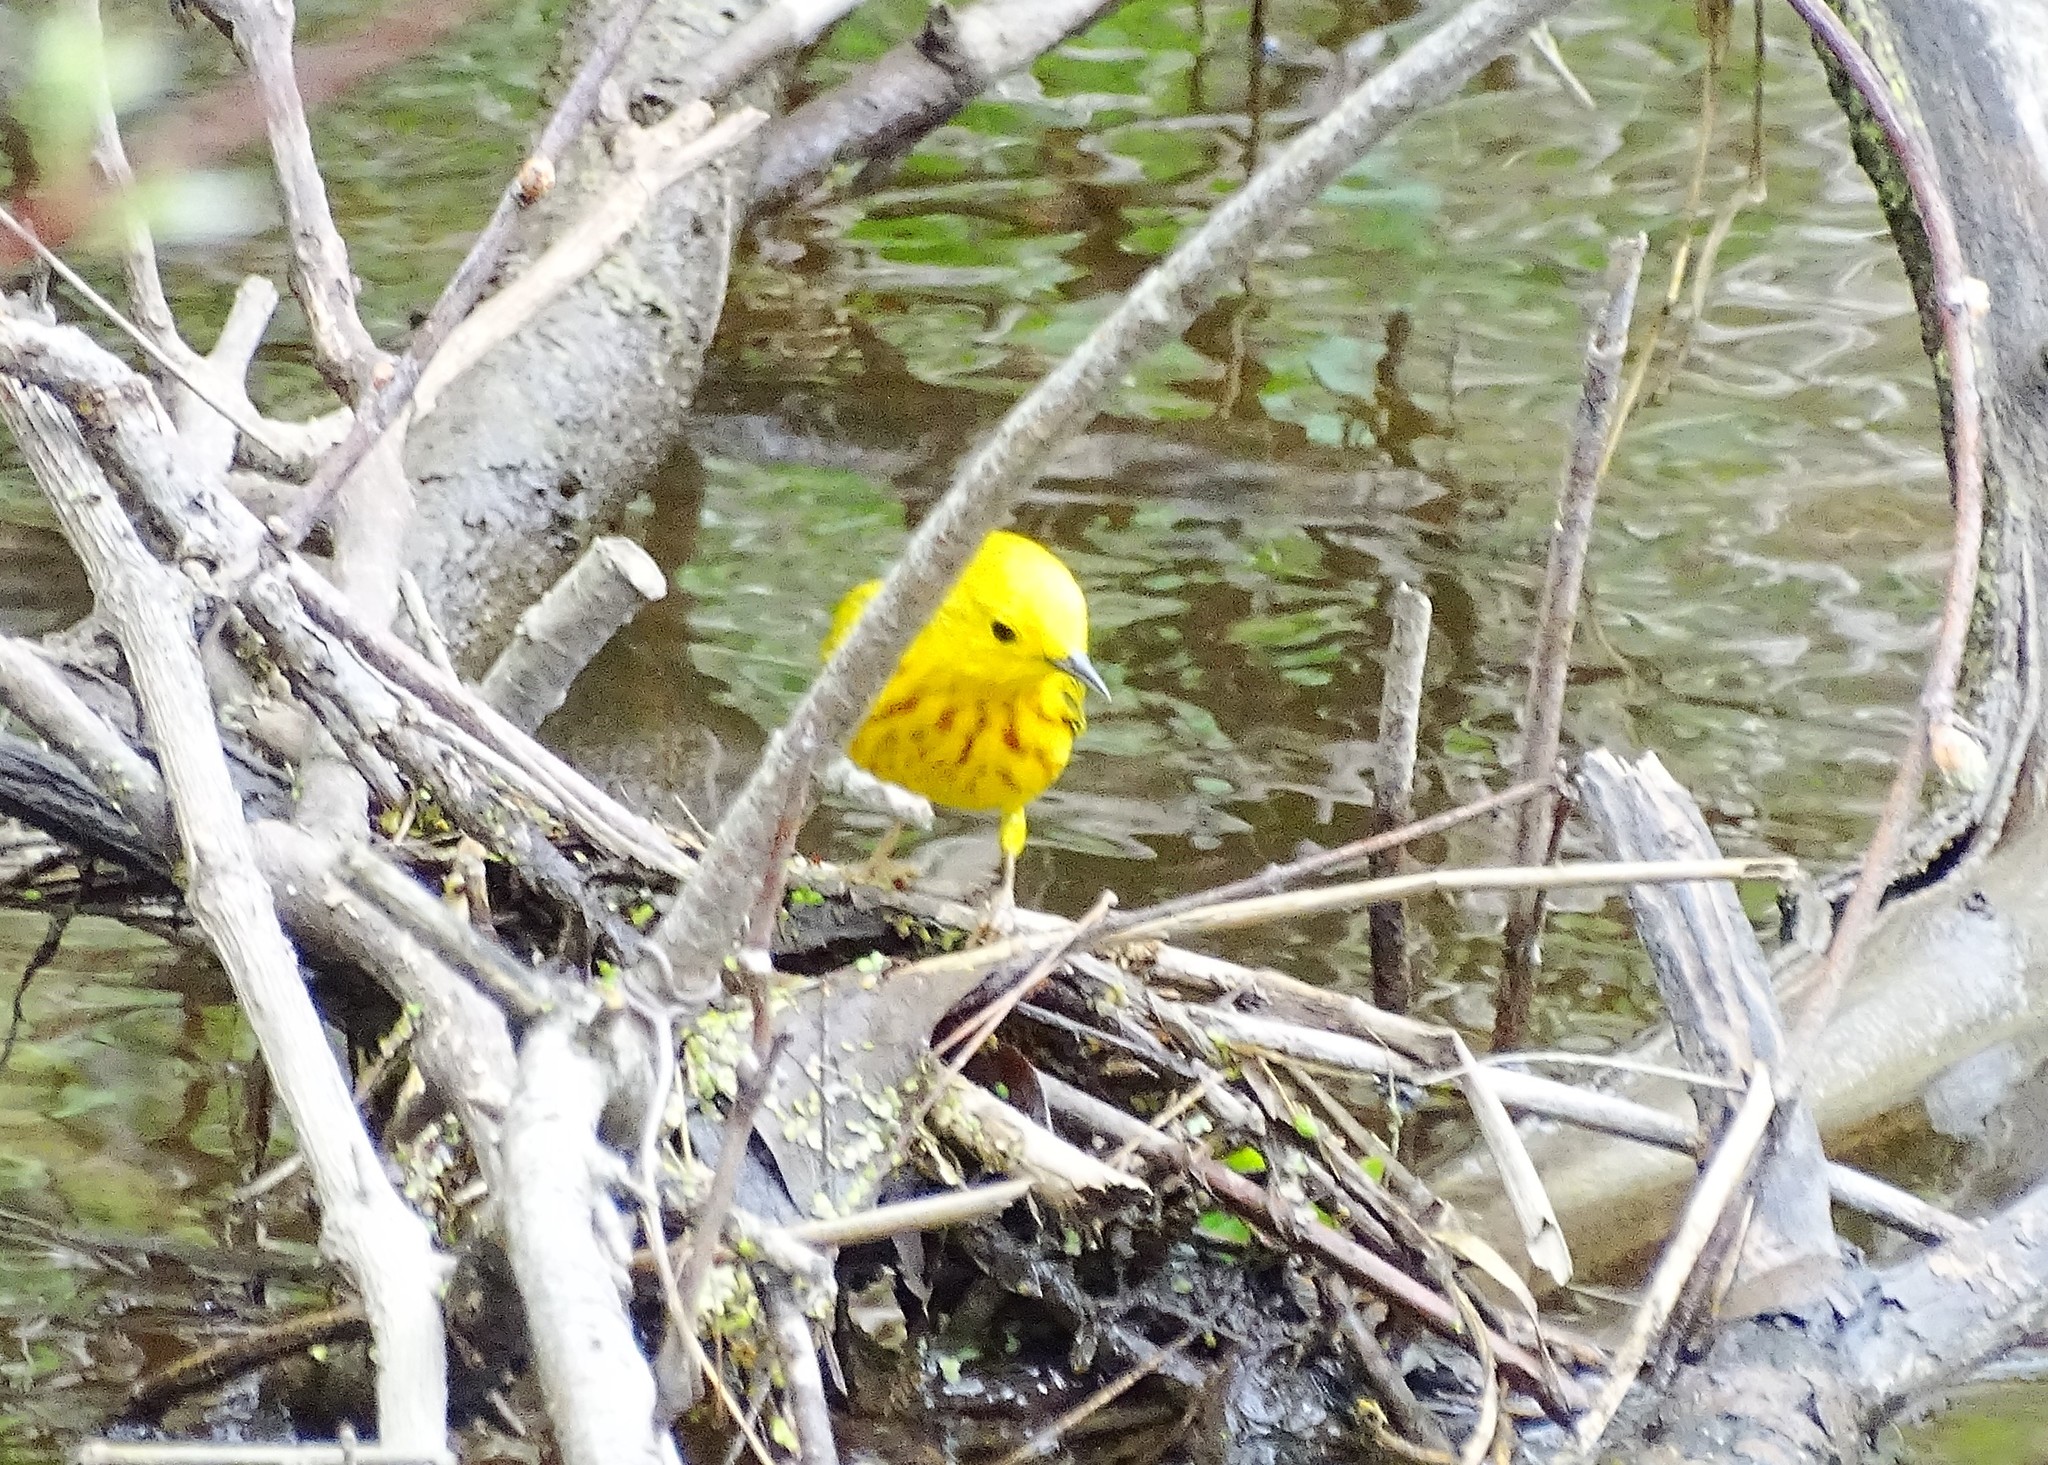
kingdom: Animalia
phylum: Chordata
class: Aves
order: Passeriformes
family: Parulidae
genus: Setophaga
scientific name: Setophaga petechia
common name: Yellow warbler
